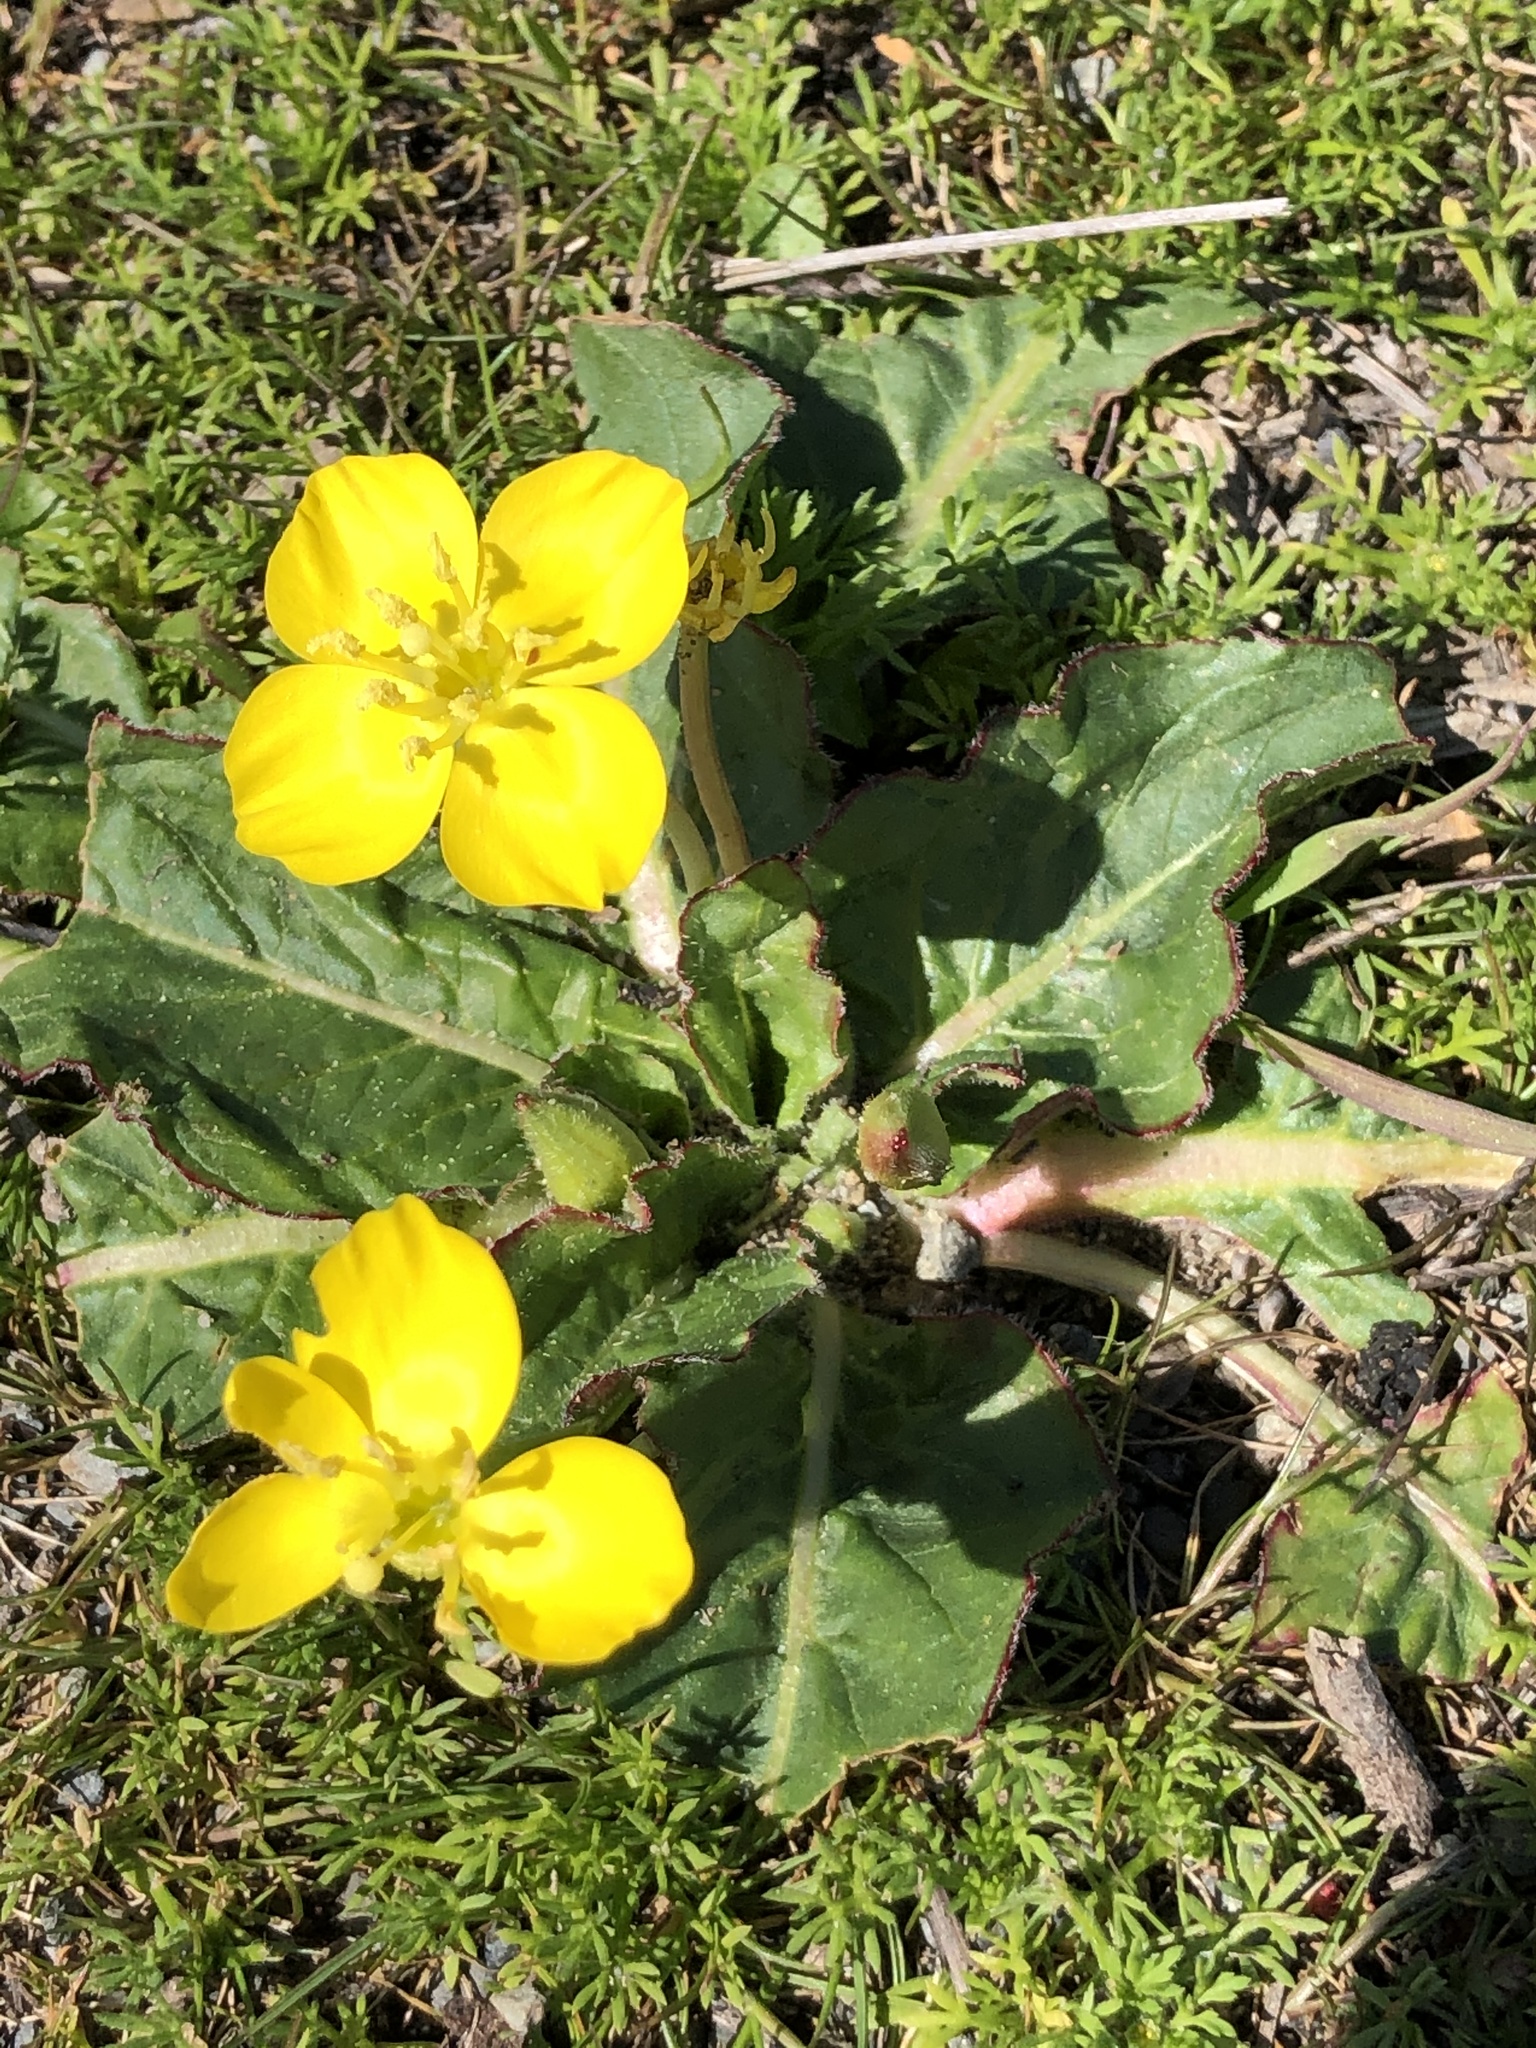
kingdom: Plantae
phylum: Tracheophyta
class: Magnoliopsida
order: Myrtales
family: Onagraceae
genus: Taraxia
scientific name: Taraxia ovata
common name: Goldeneggs
